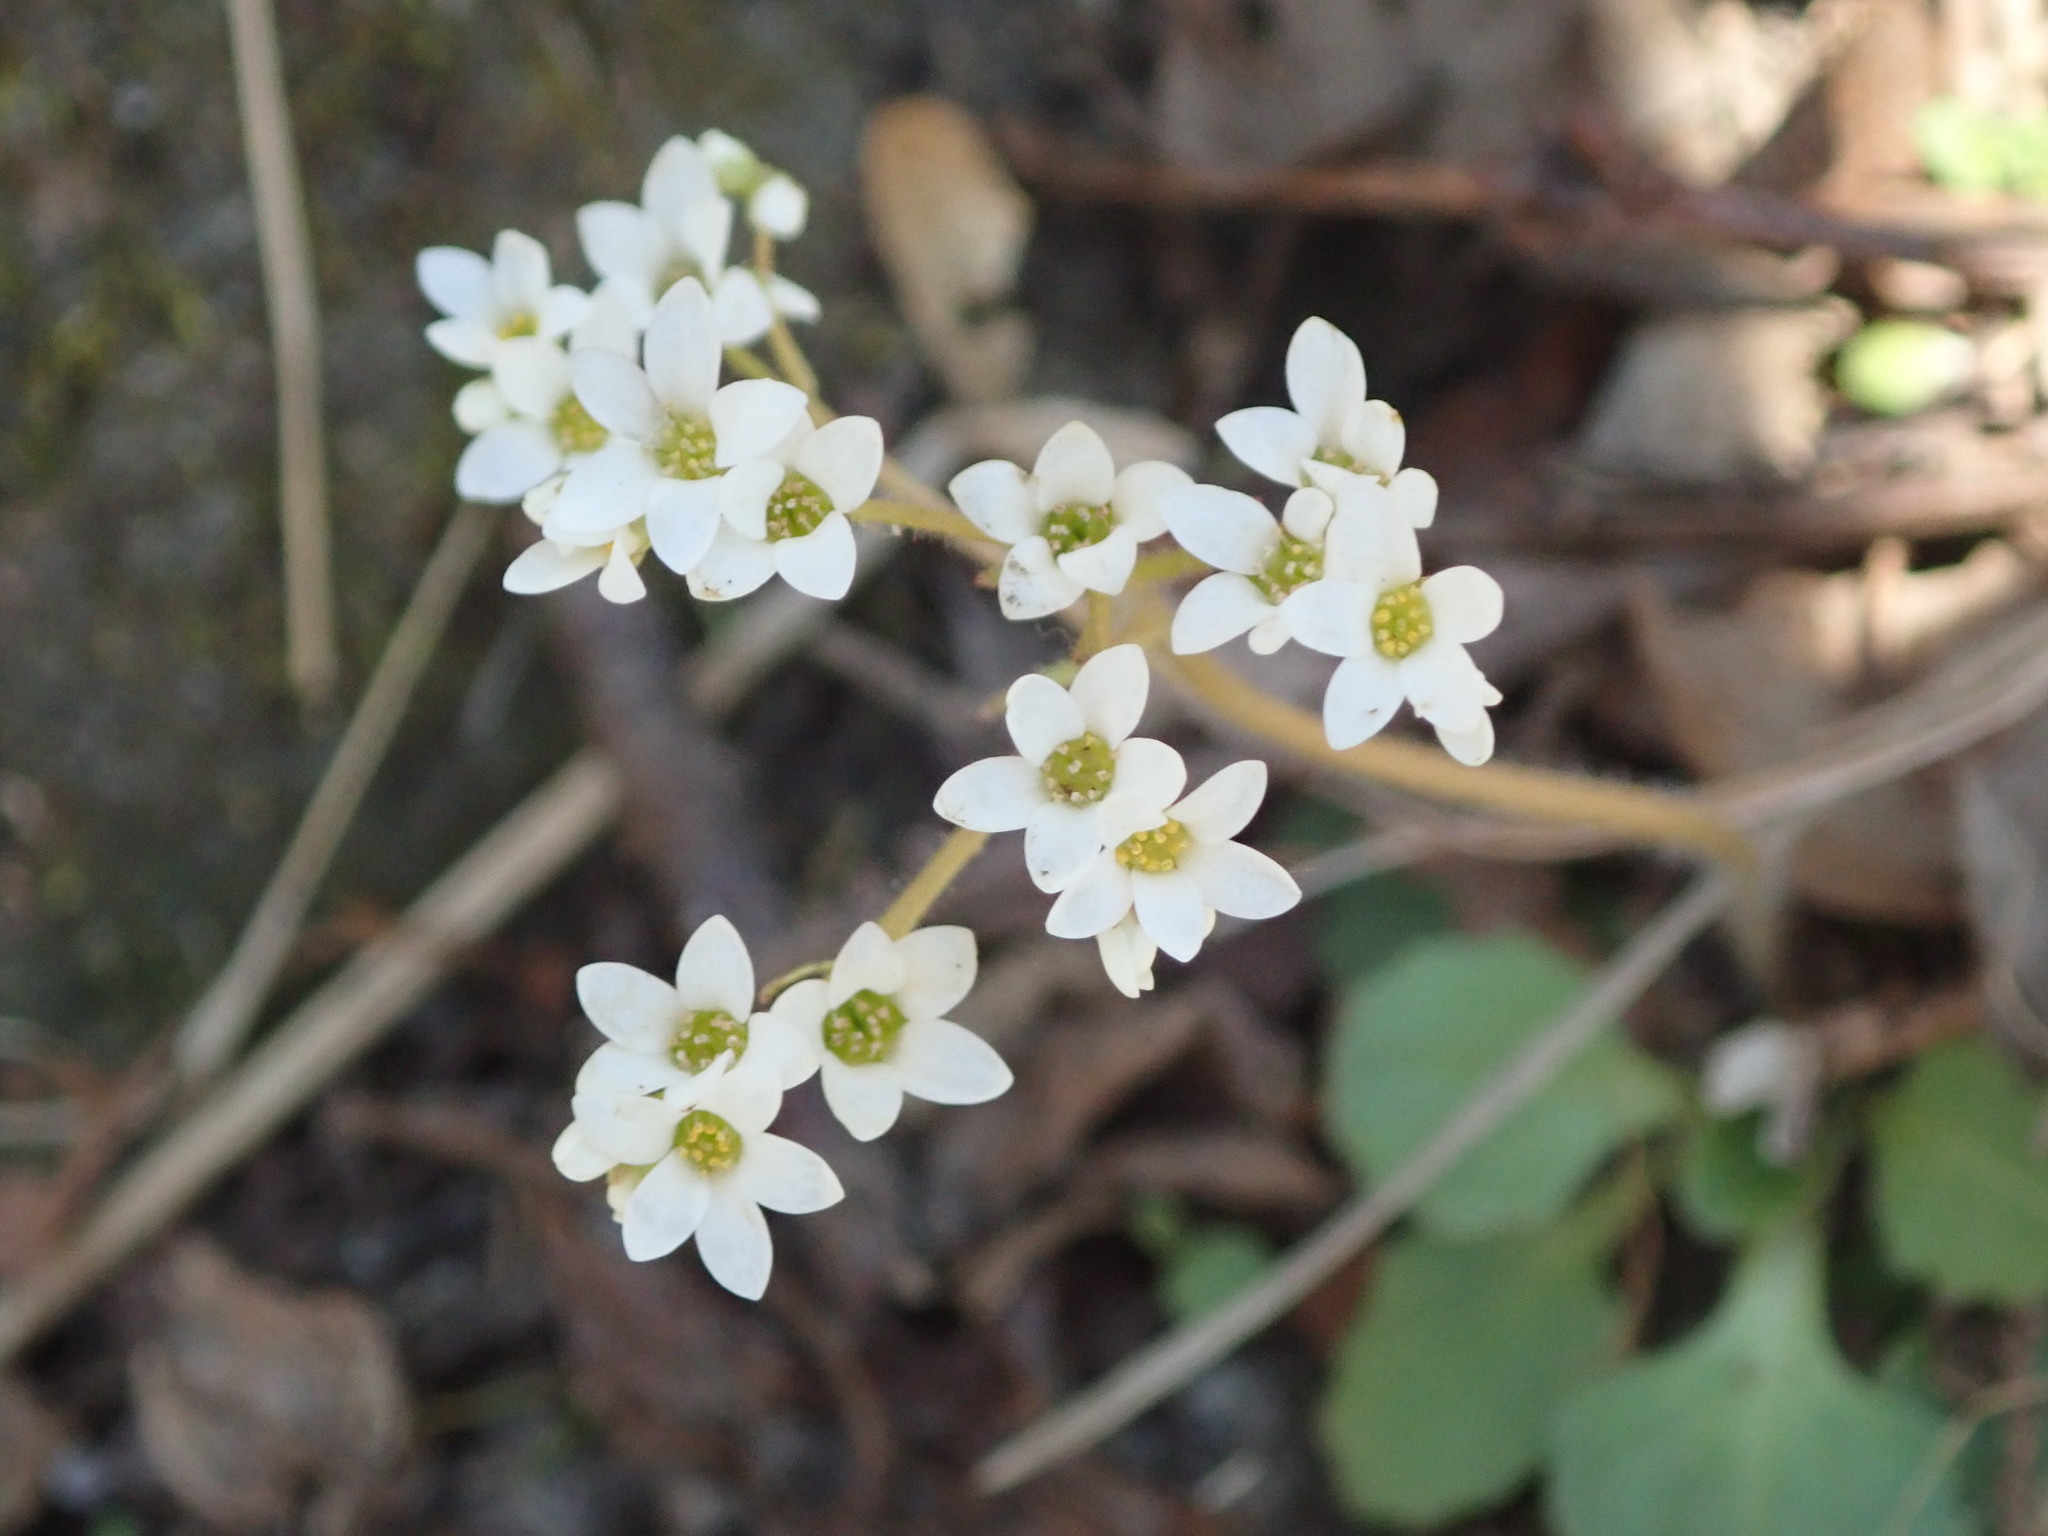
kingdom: Plantae
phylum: Tracheophyta
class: Magnoliopsida
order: Saxifragales
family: Saxifragaceae
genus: Micranthes
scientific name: Micranthes virginiensis
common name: Early saxifrage
